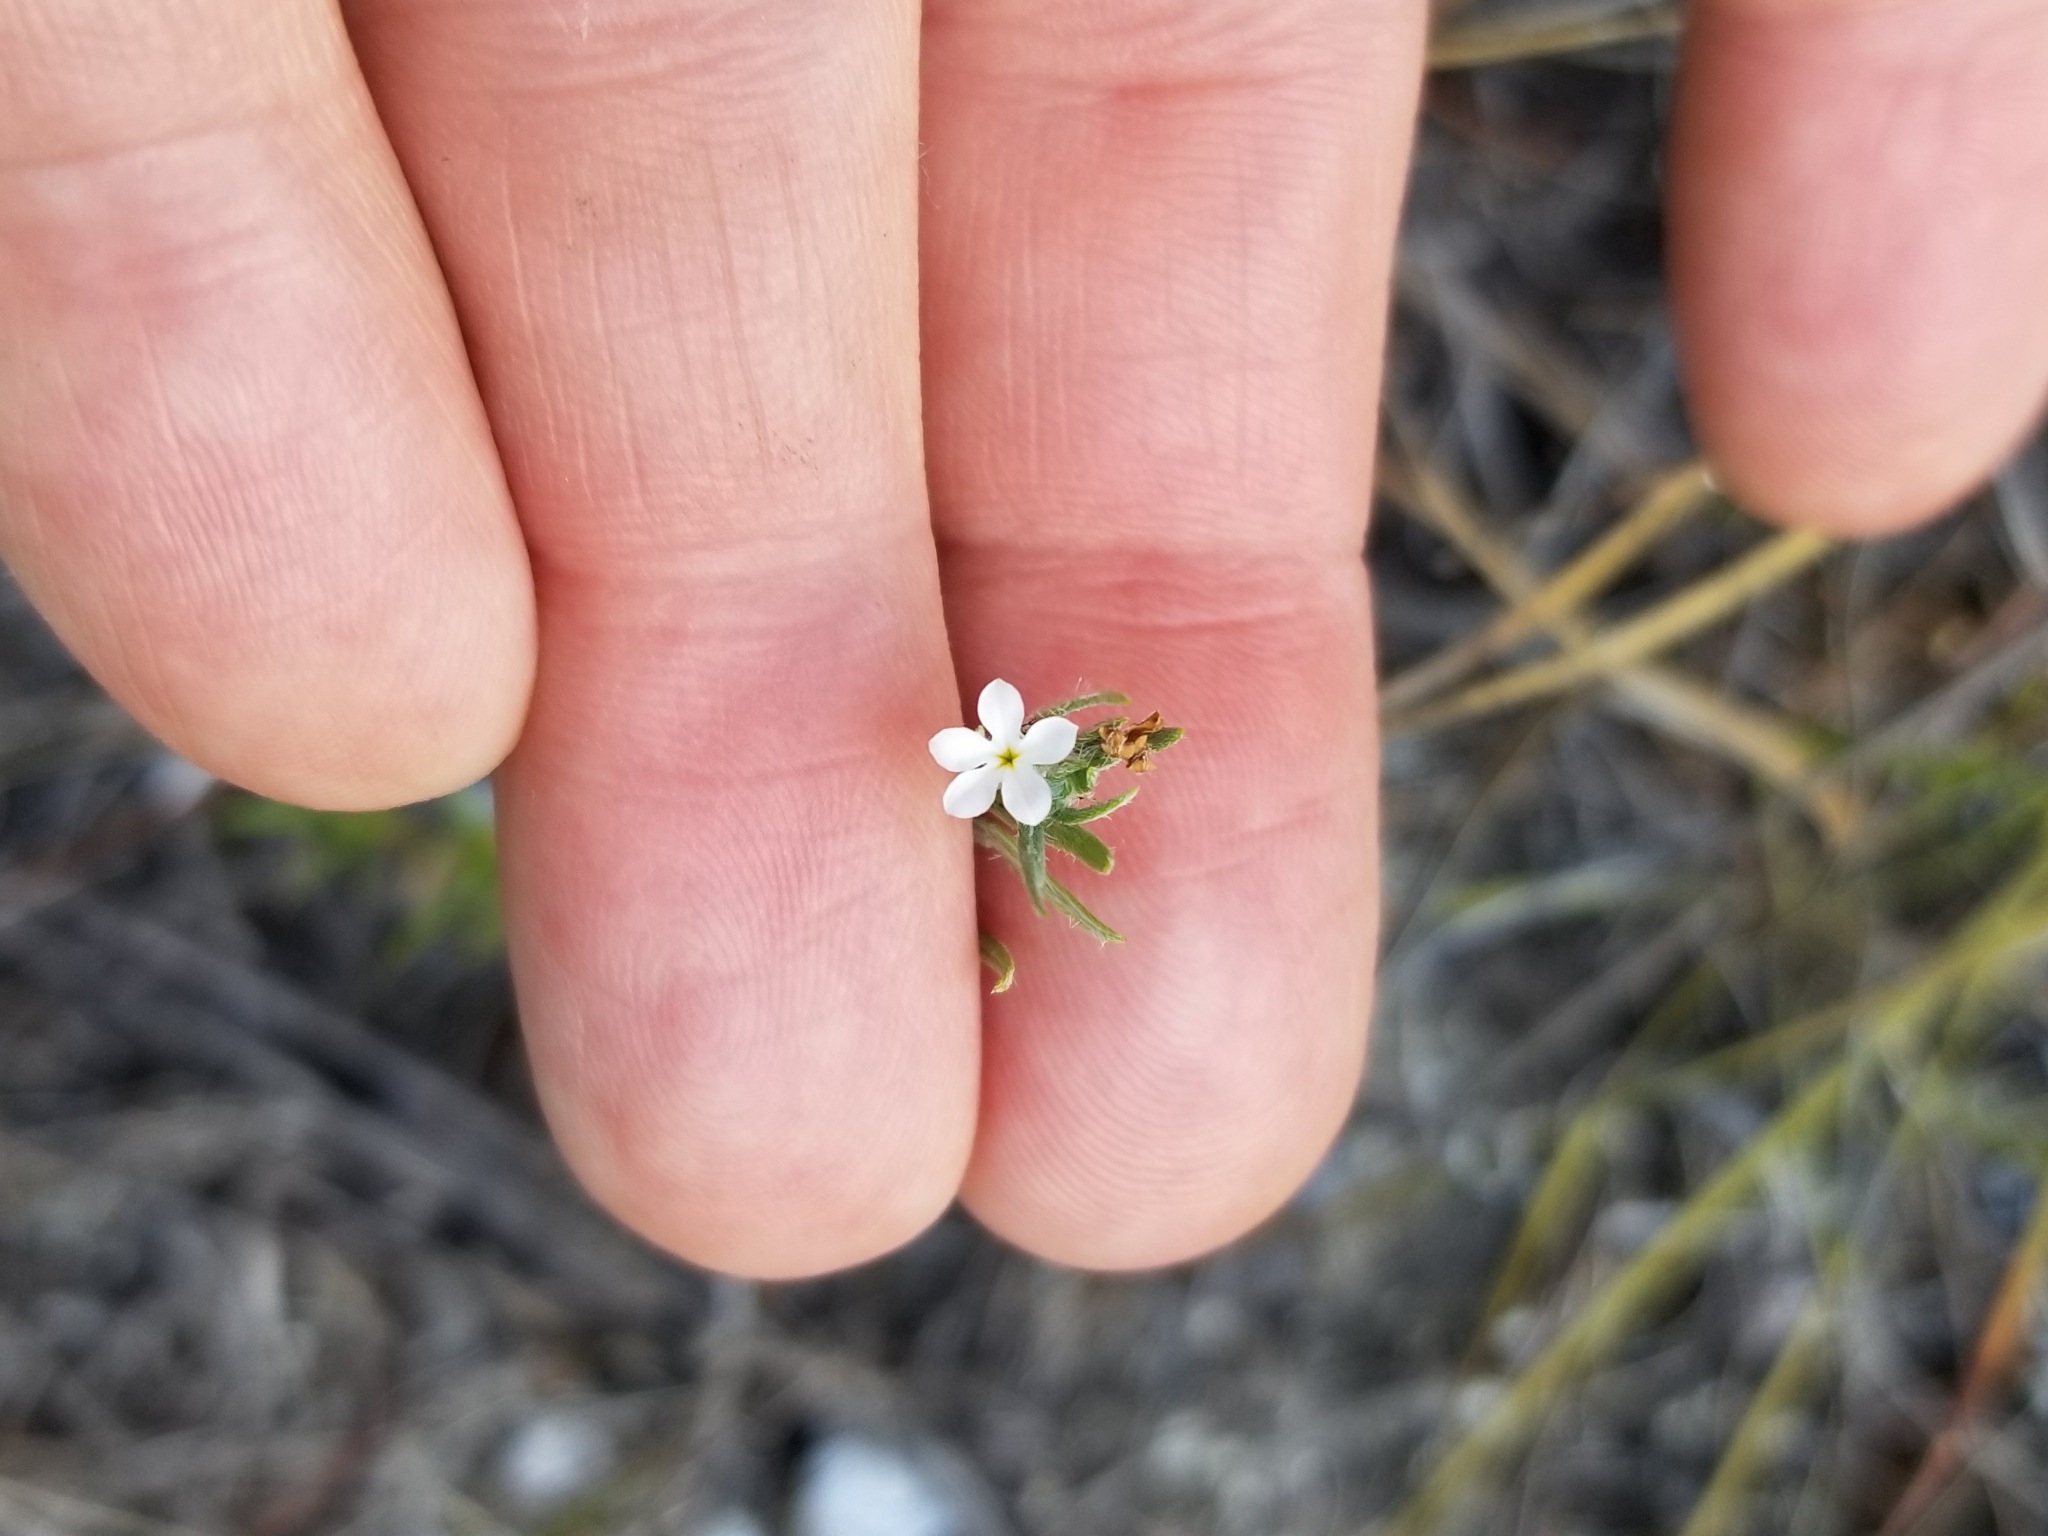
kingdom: Plantae
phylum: Tracheophyta
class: Magnoliopsida
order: Boraginales
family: Heliotropiaceae
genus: Euploca
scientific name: Euploca tenella
